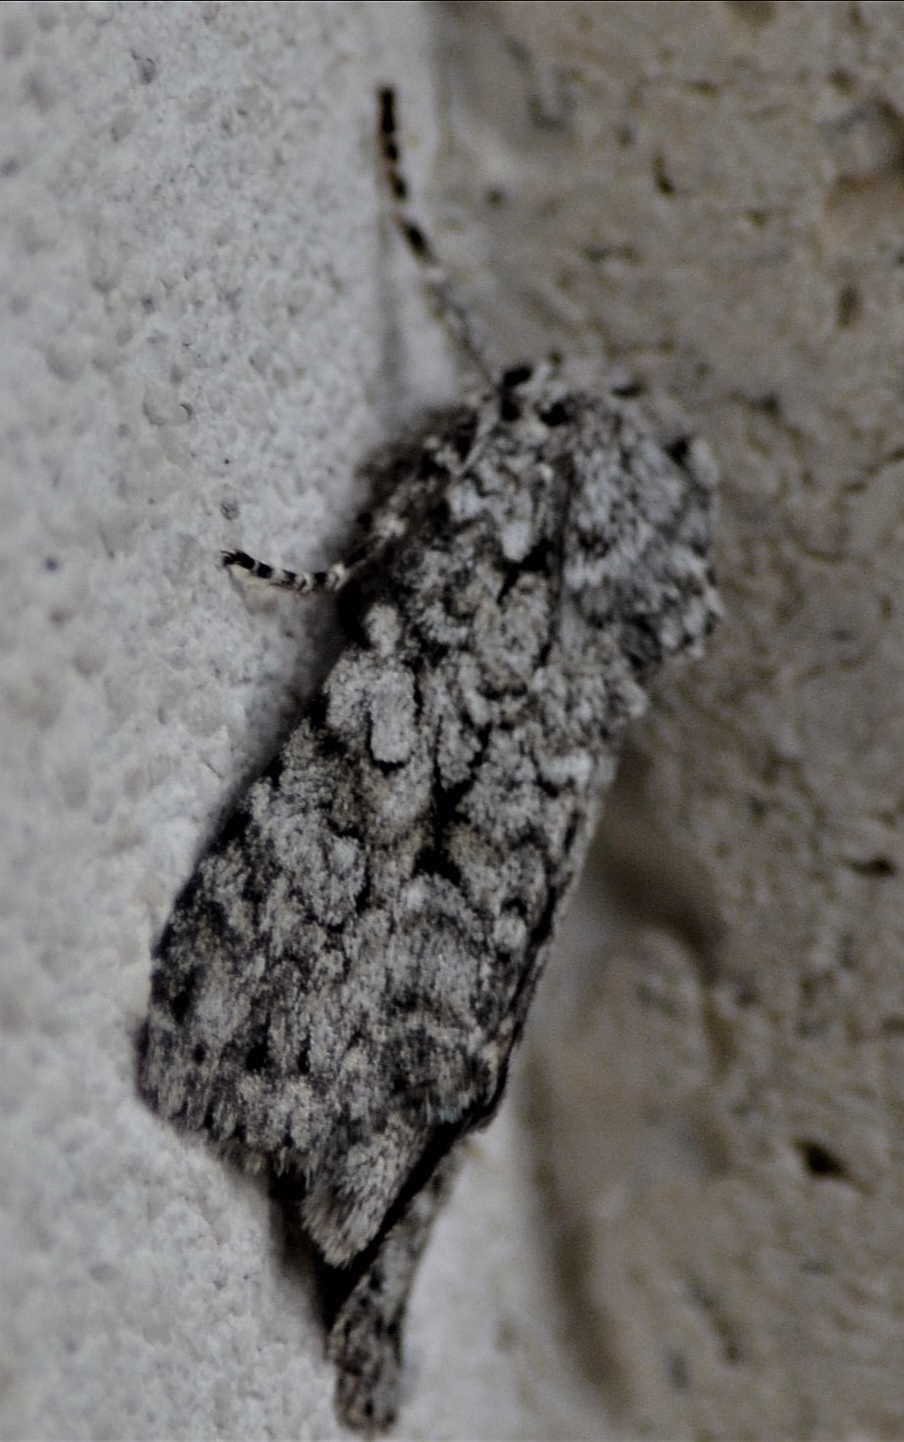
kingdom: Animalia
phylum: Arthropoda
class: Insecta
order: Lepidoptera
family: Noctuidae
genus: Antitype
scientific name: Antitype chi
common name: Grey chi
